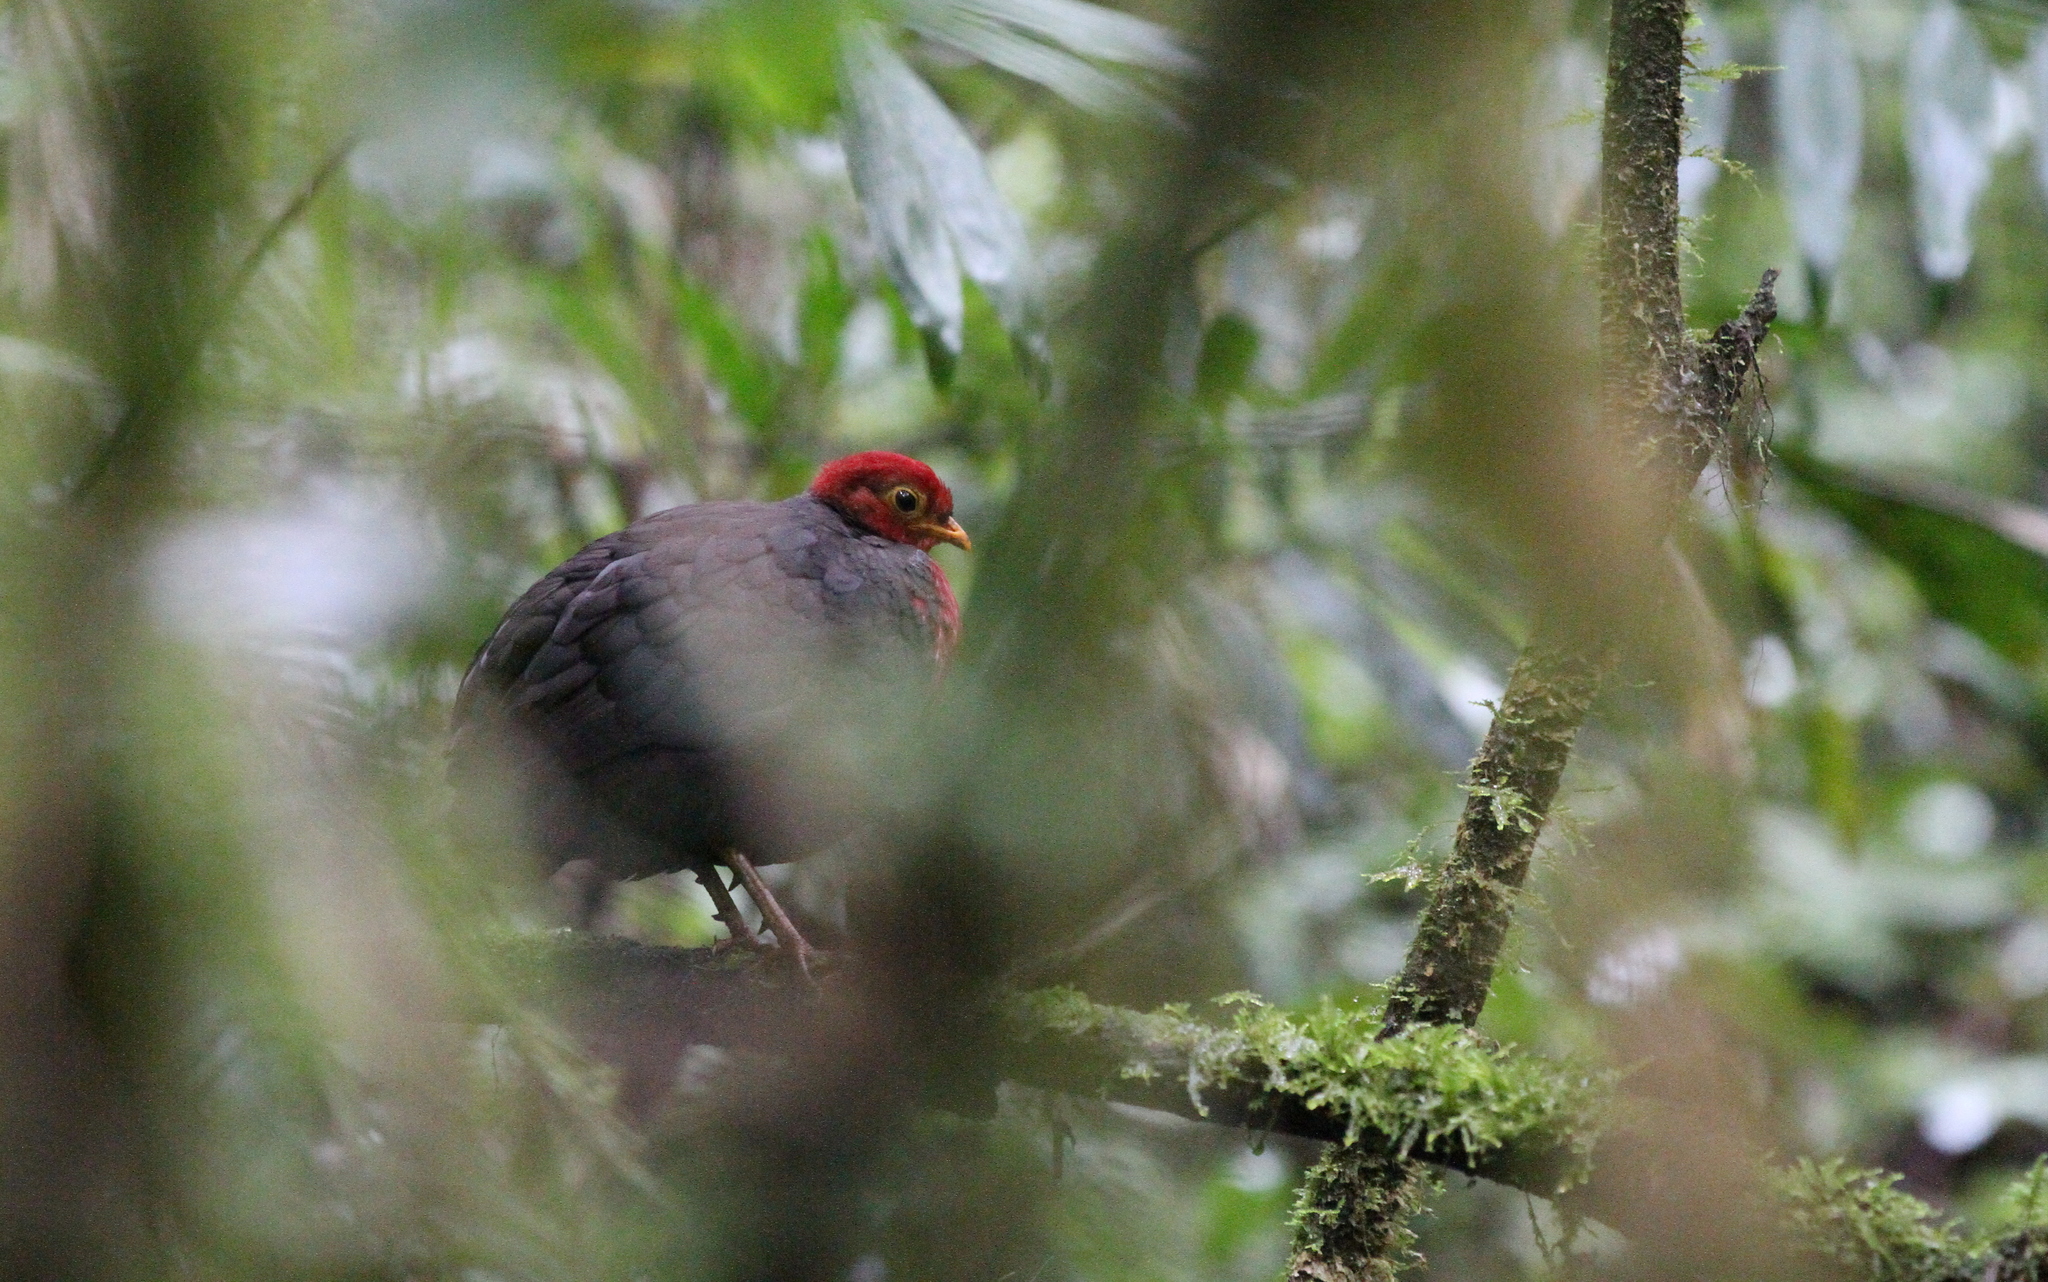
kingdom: Animalia
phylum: Chordata
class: Aves
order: Galliformes
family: Phasianidae
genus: Haematortyx
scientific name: Haematortyx sanguiniceps
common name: Crimson-headed partridge
